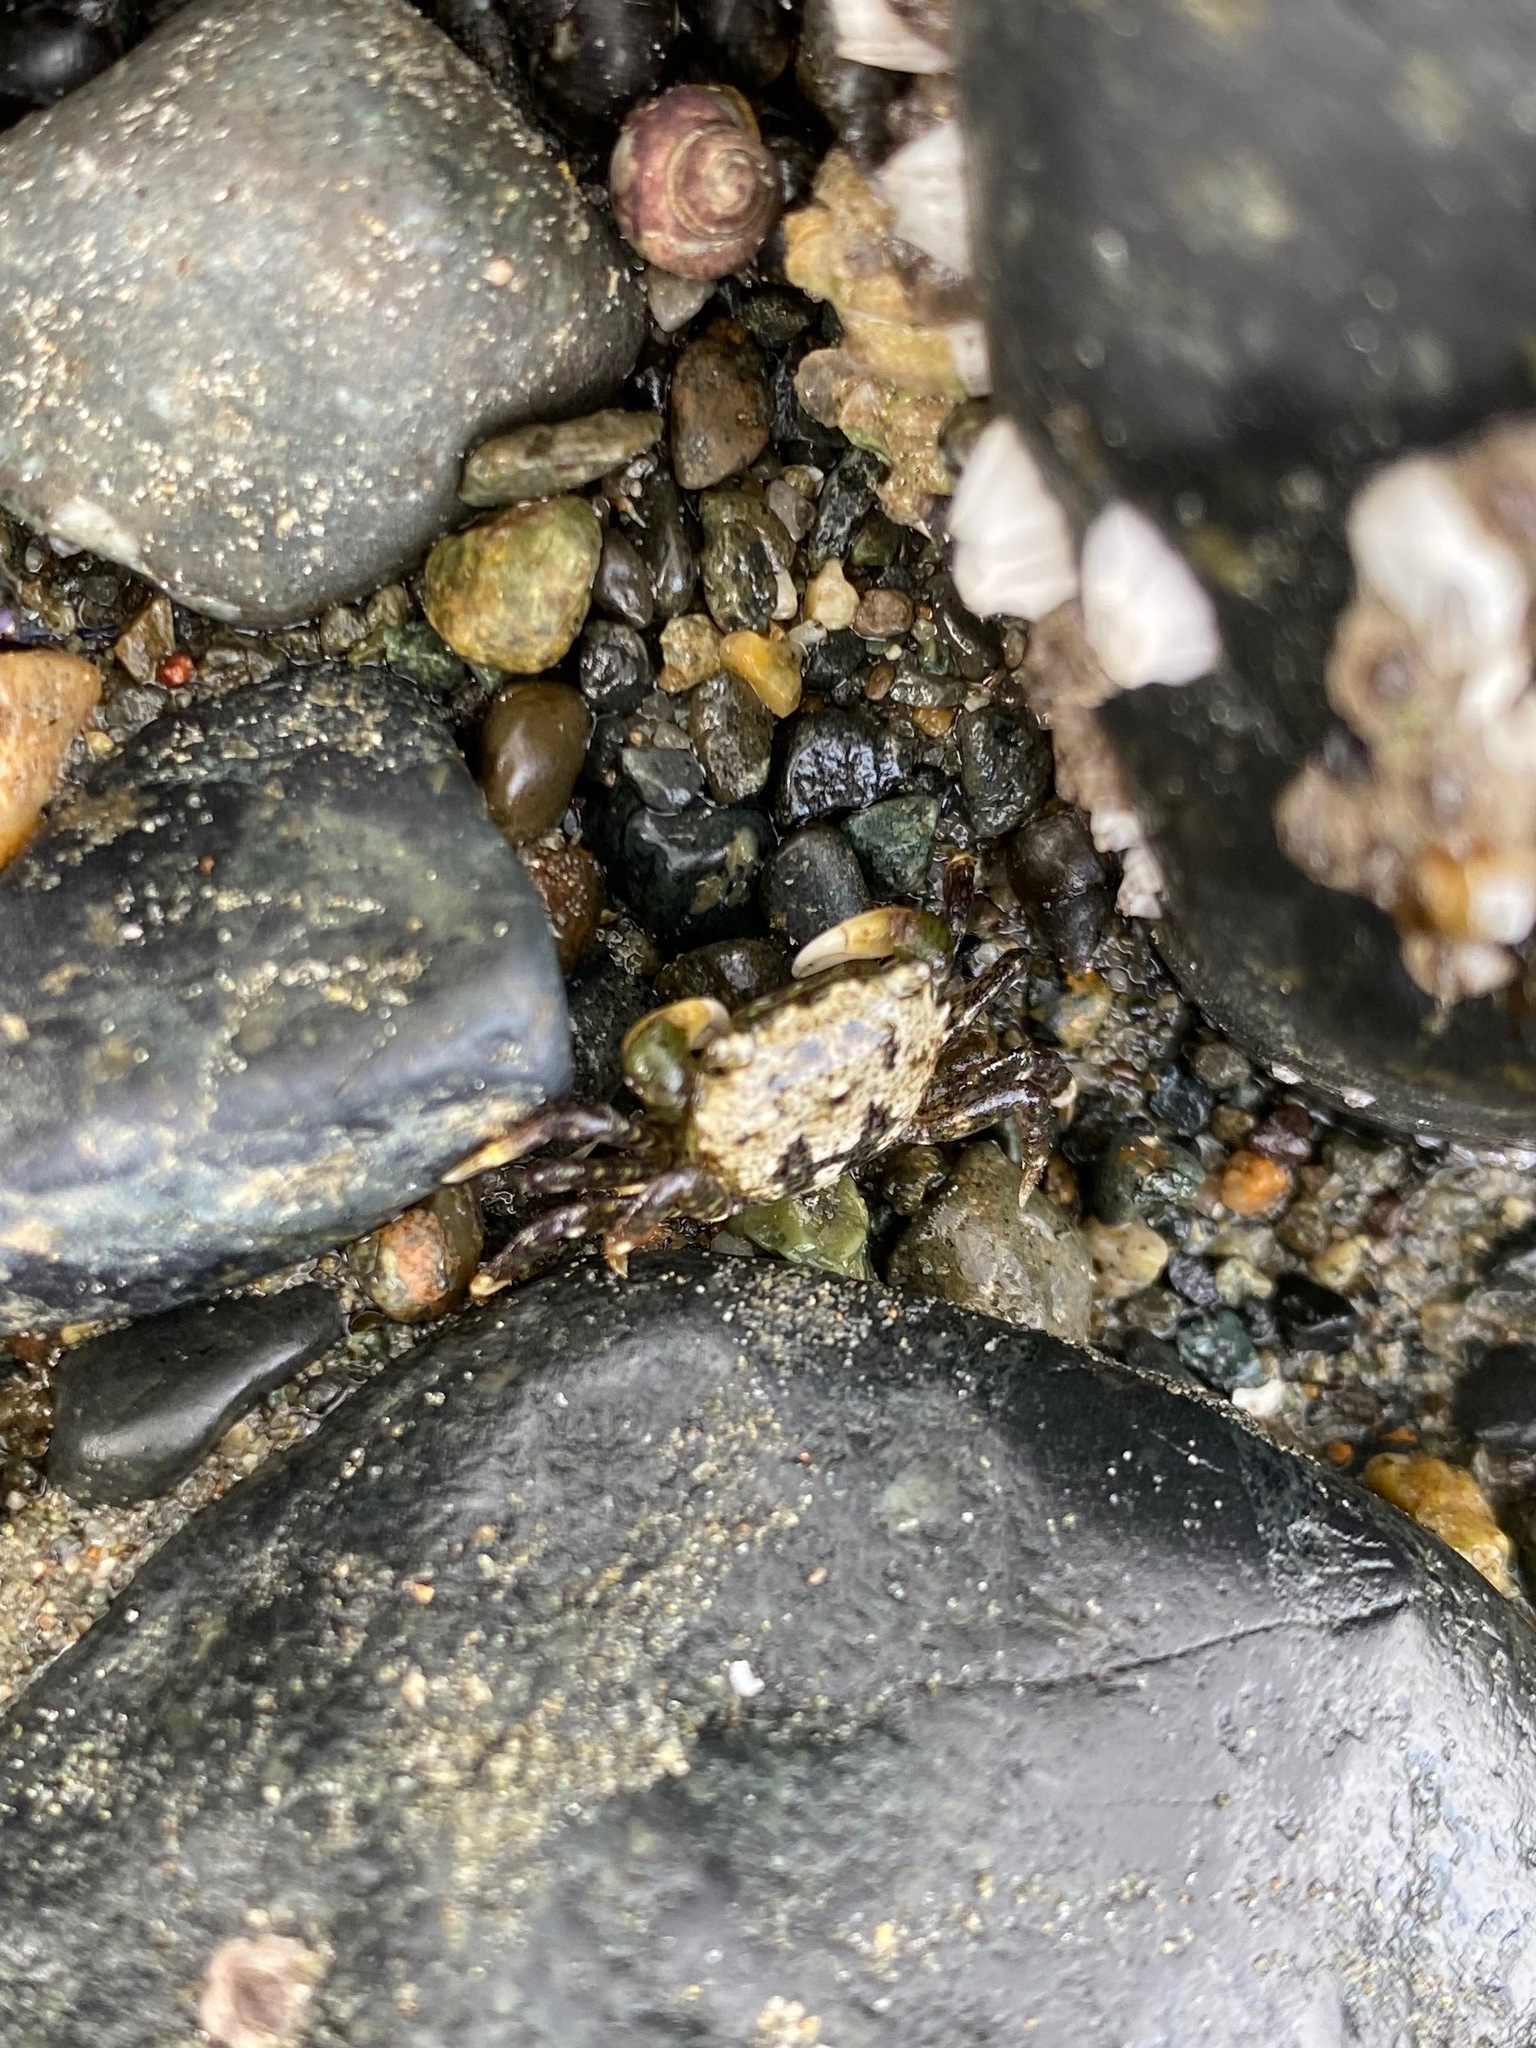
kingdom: Animalia
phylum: Arthropoda
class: Malacostraca
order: Decapoda
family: Varunidae
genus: Hemigrapsus
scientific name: Hemigrapsus oregonensis
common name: Yellow shore crab
